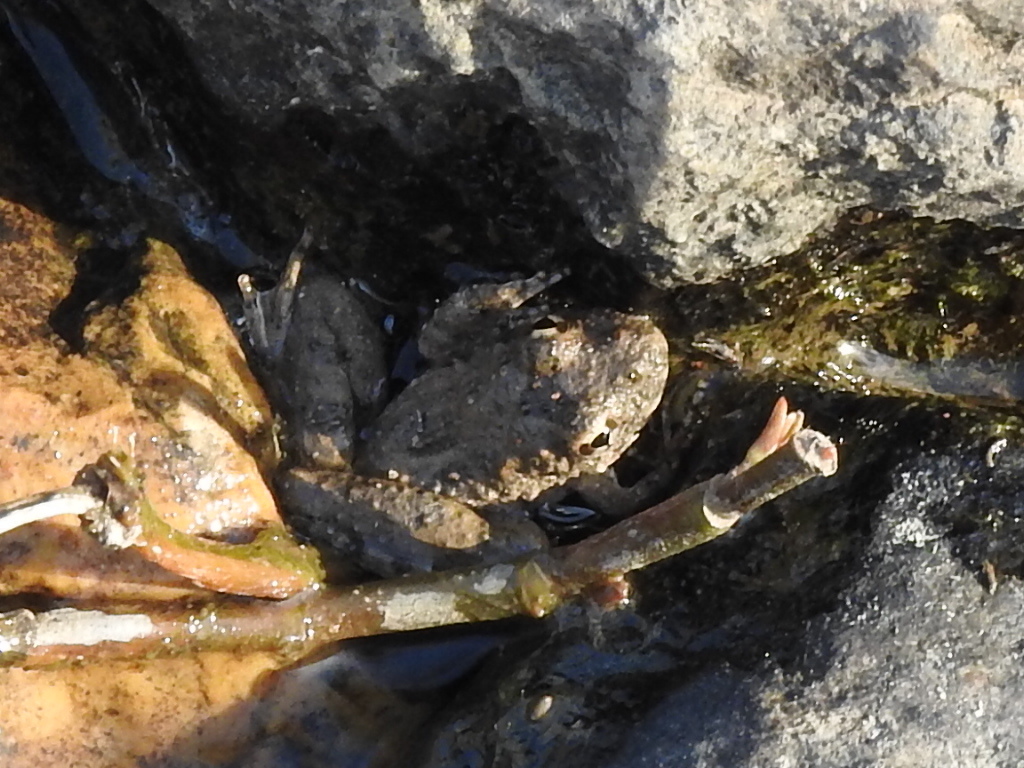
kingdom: Animalia
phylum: Chordata
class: Amphibia
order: Anura
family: Hylidae
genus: Acris
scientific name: Acris blanchardi
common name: Blanchard's cricket frog
